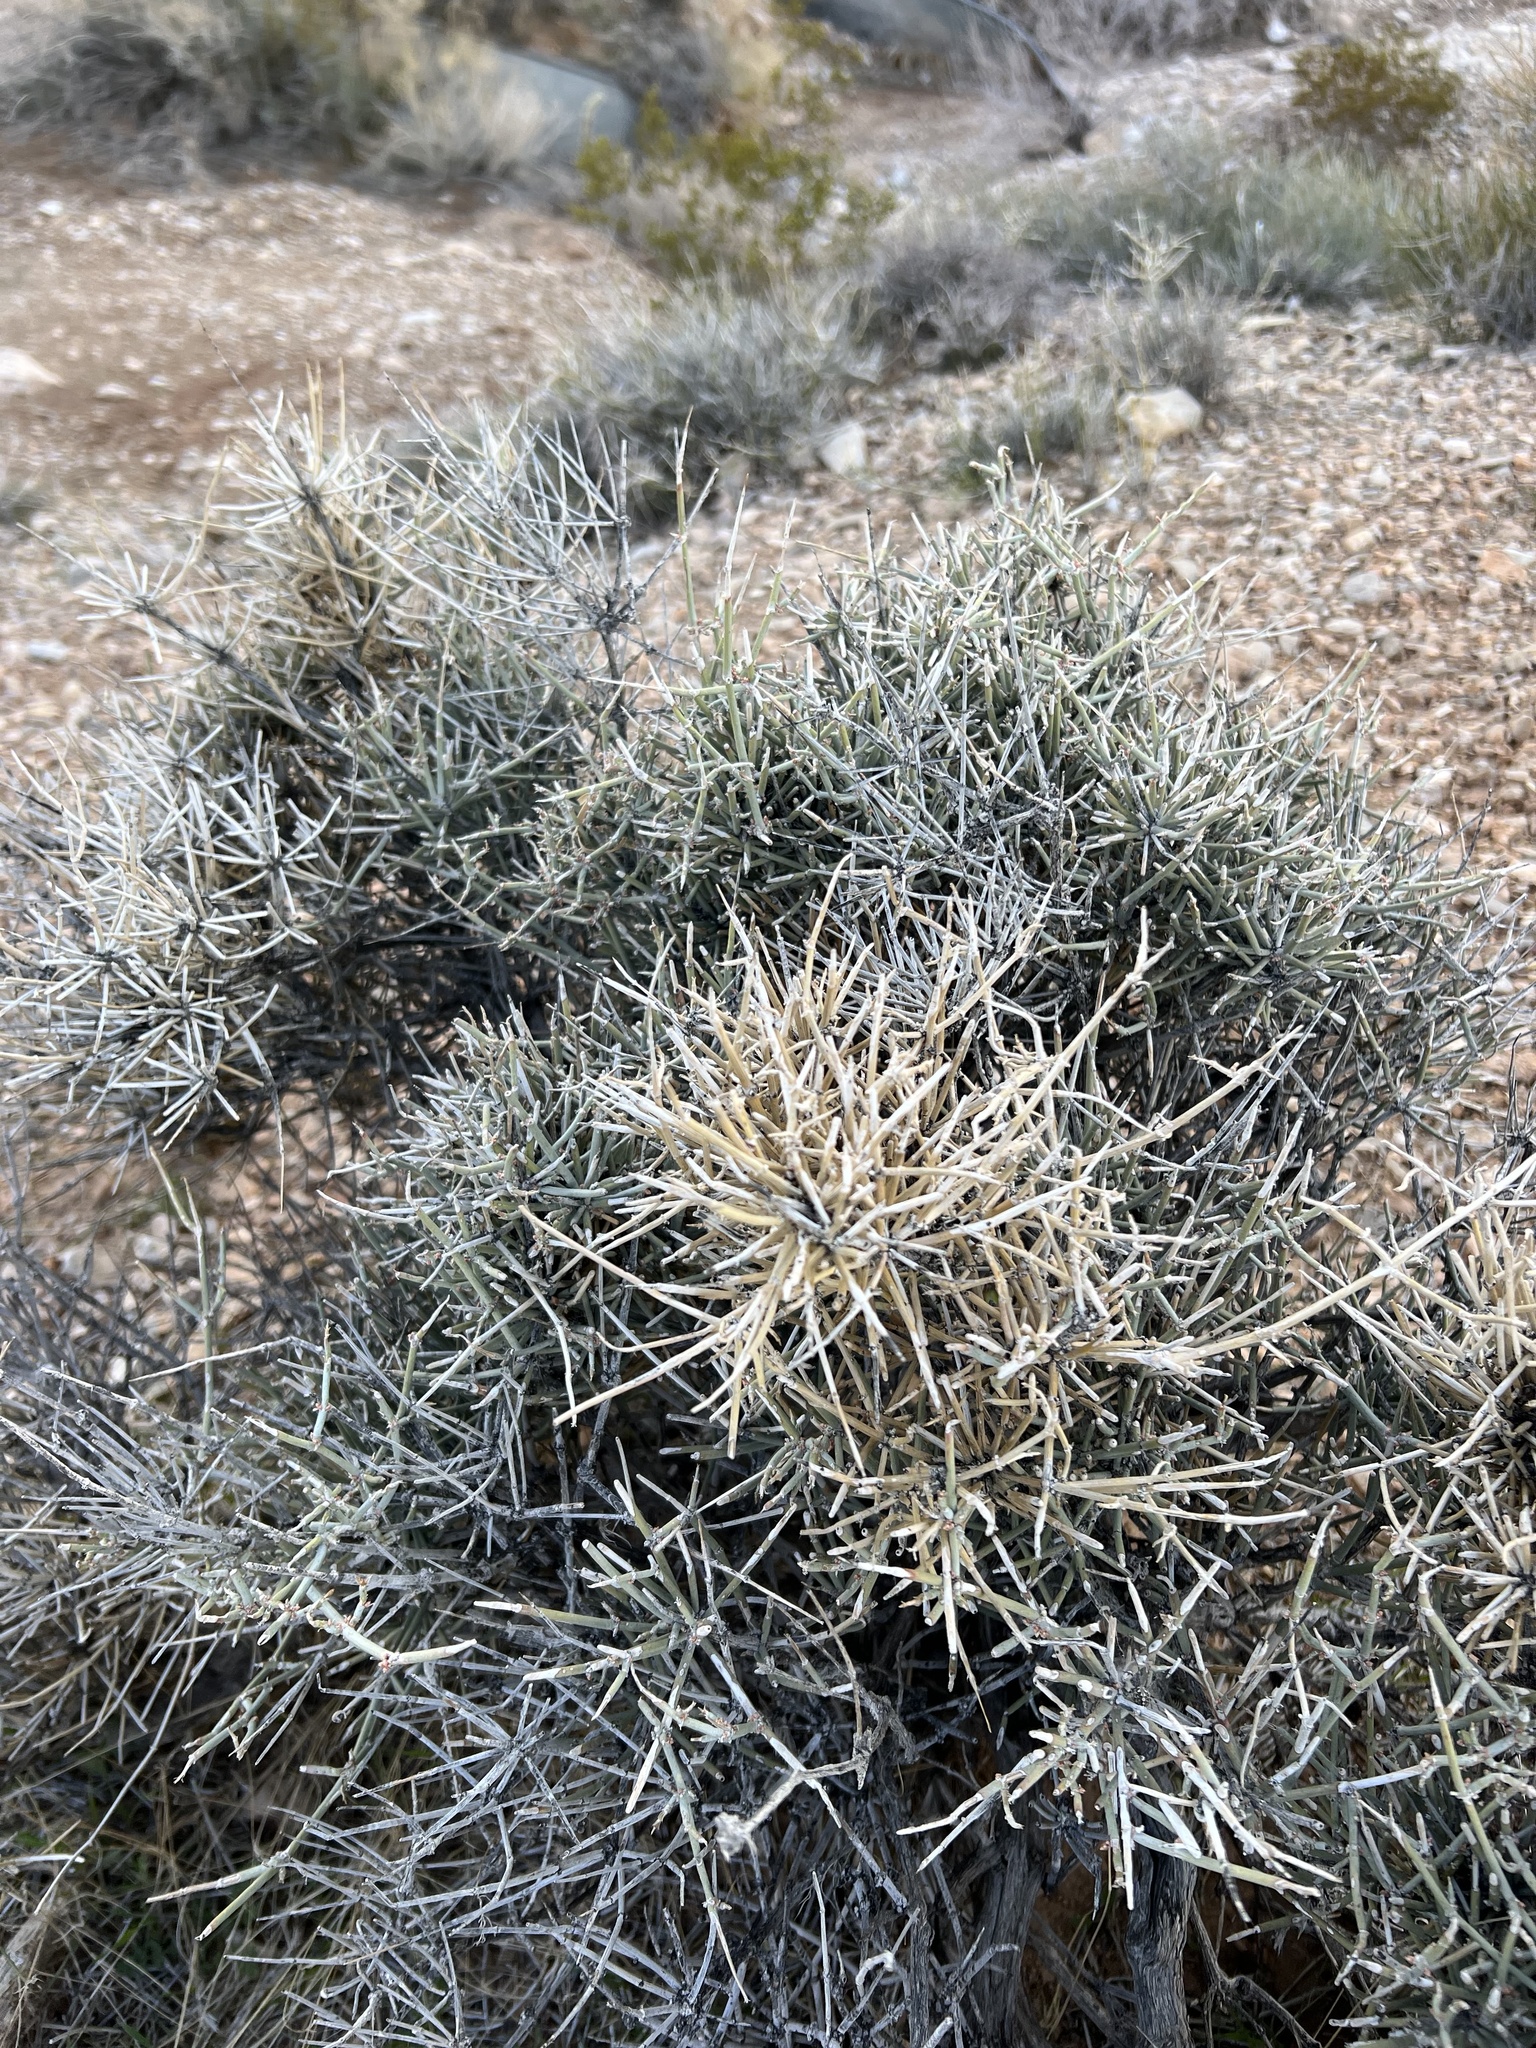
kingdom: Plantae
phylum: Tracheophyta
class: Gnetopsida
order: Ephedrales
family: Ephedraceae
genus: Ephedra
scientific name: Ephedra nevadensis
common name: Gray ephedra
